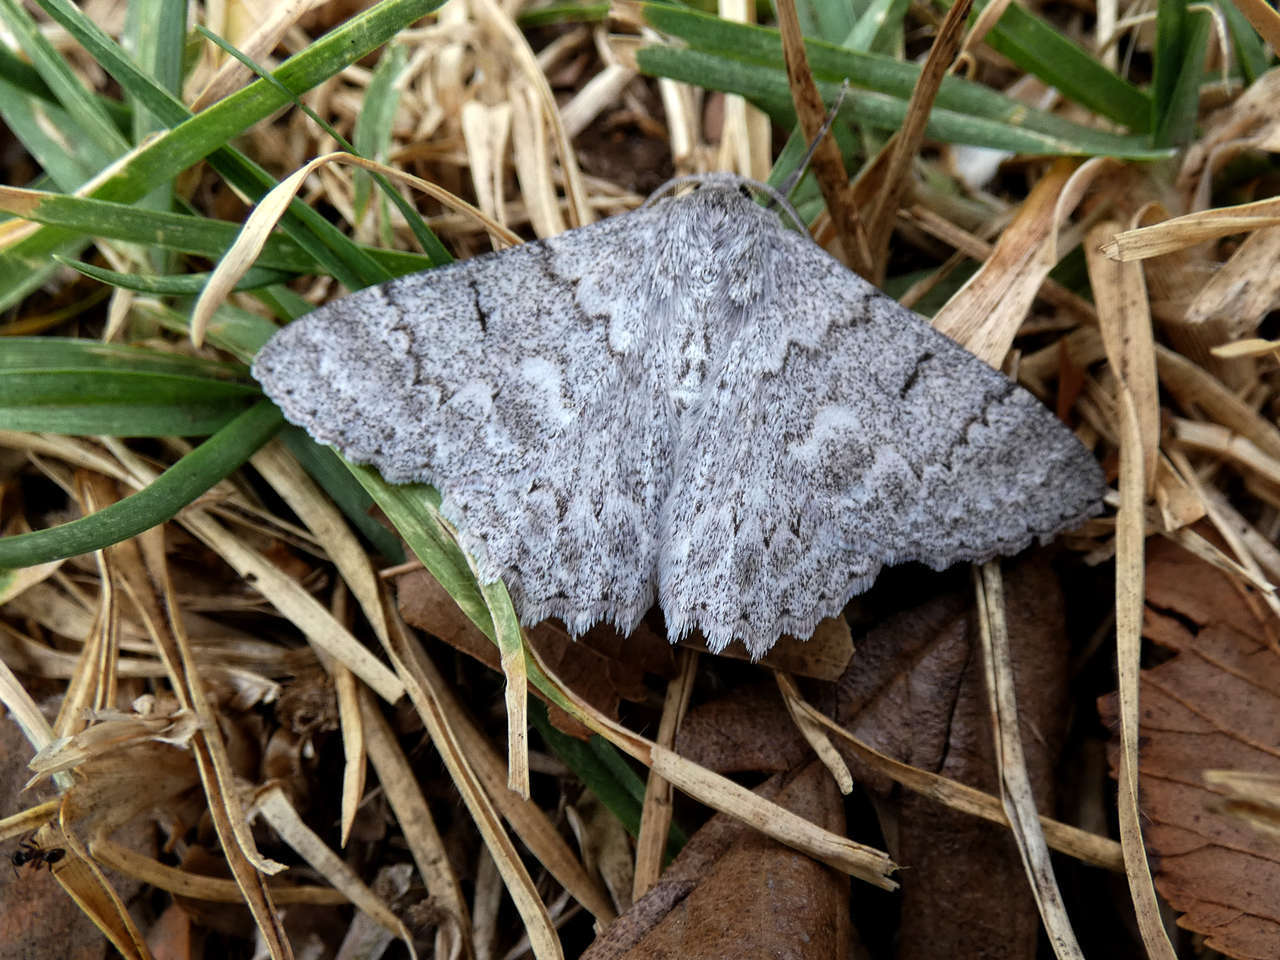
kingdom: Animalia
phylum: Arthropoda
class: Insecta
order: Lepidoptera
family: Geometridae
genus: Crypsiphona
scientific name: Crypsiphona ocultaria
